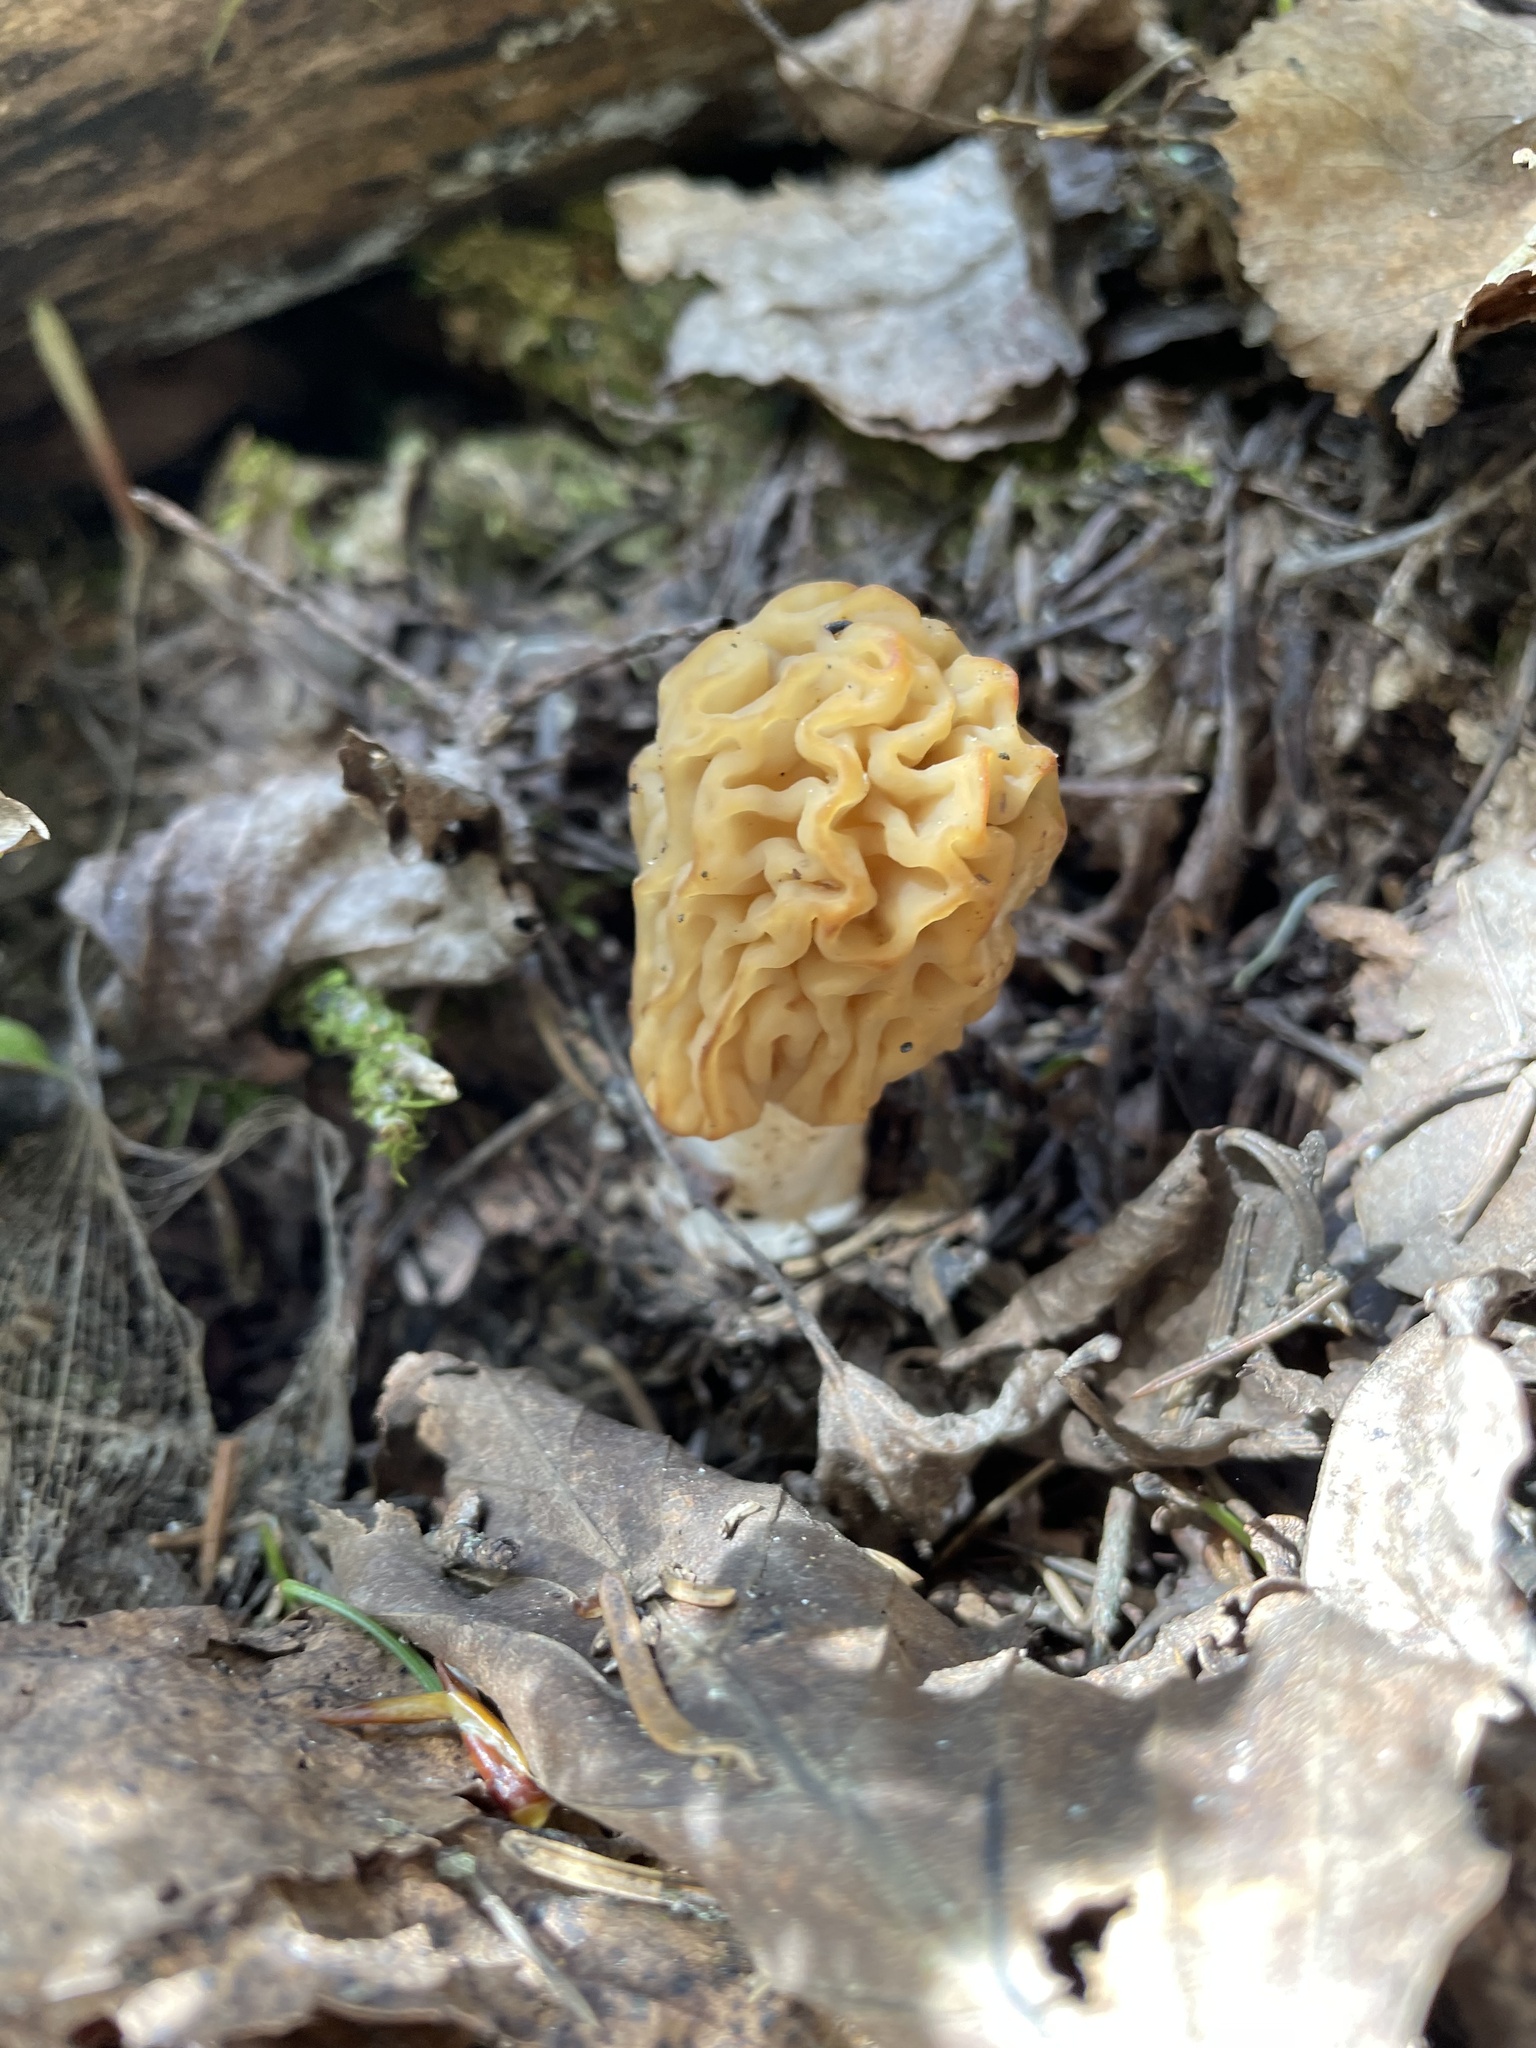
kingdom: Fungi
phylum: Ascomycota
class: Pezizomycetes
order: Pezizales
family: Morchellaceae
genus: Verpa
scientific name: Verpa bohemica
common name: Wrinkled thimble morel
